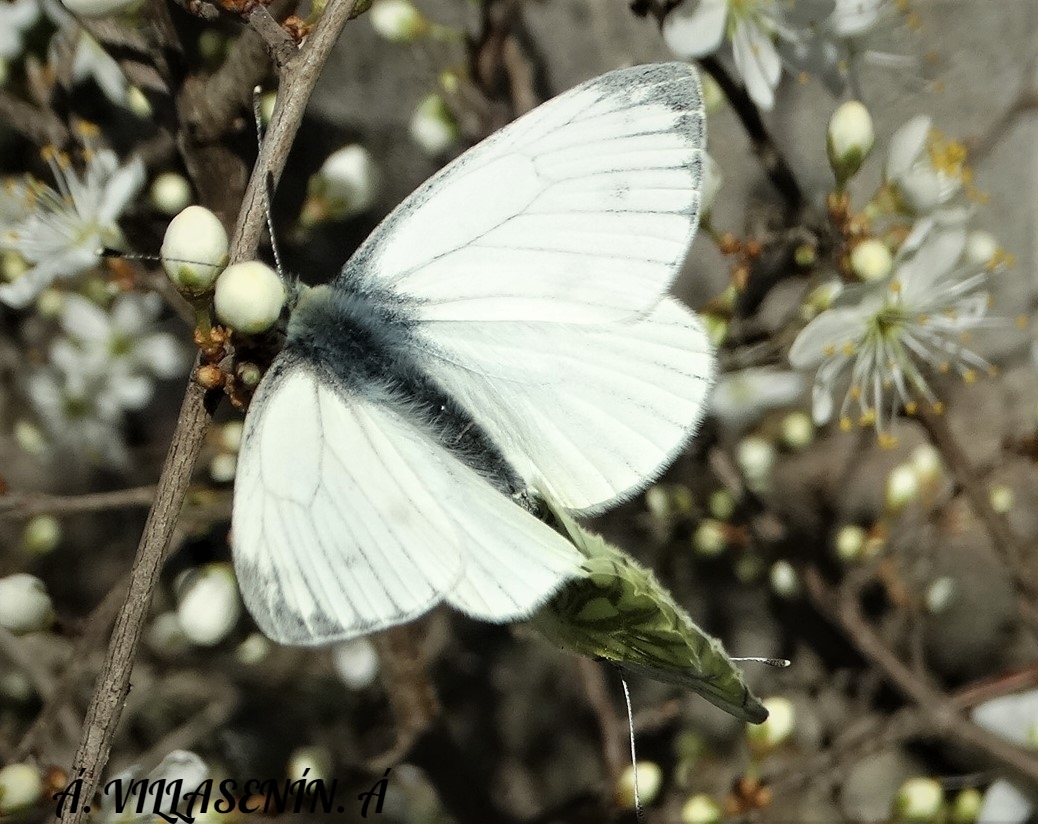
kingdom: Animalia
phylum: Arthropoda
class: Insecta
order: Lepidoptera
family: Pieridae
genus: Pieris
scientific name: Pieris napi
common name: Green-veined white
